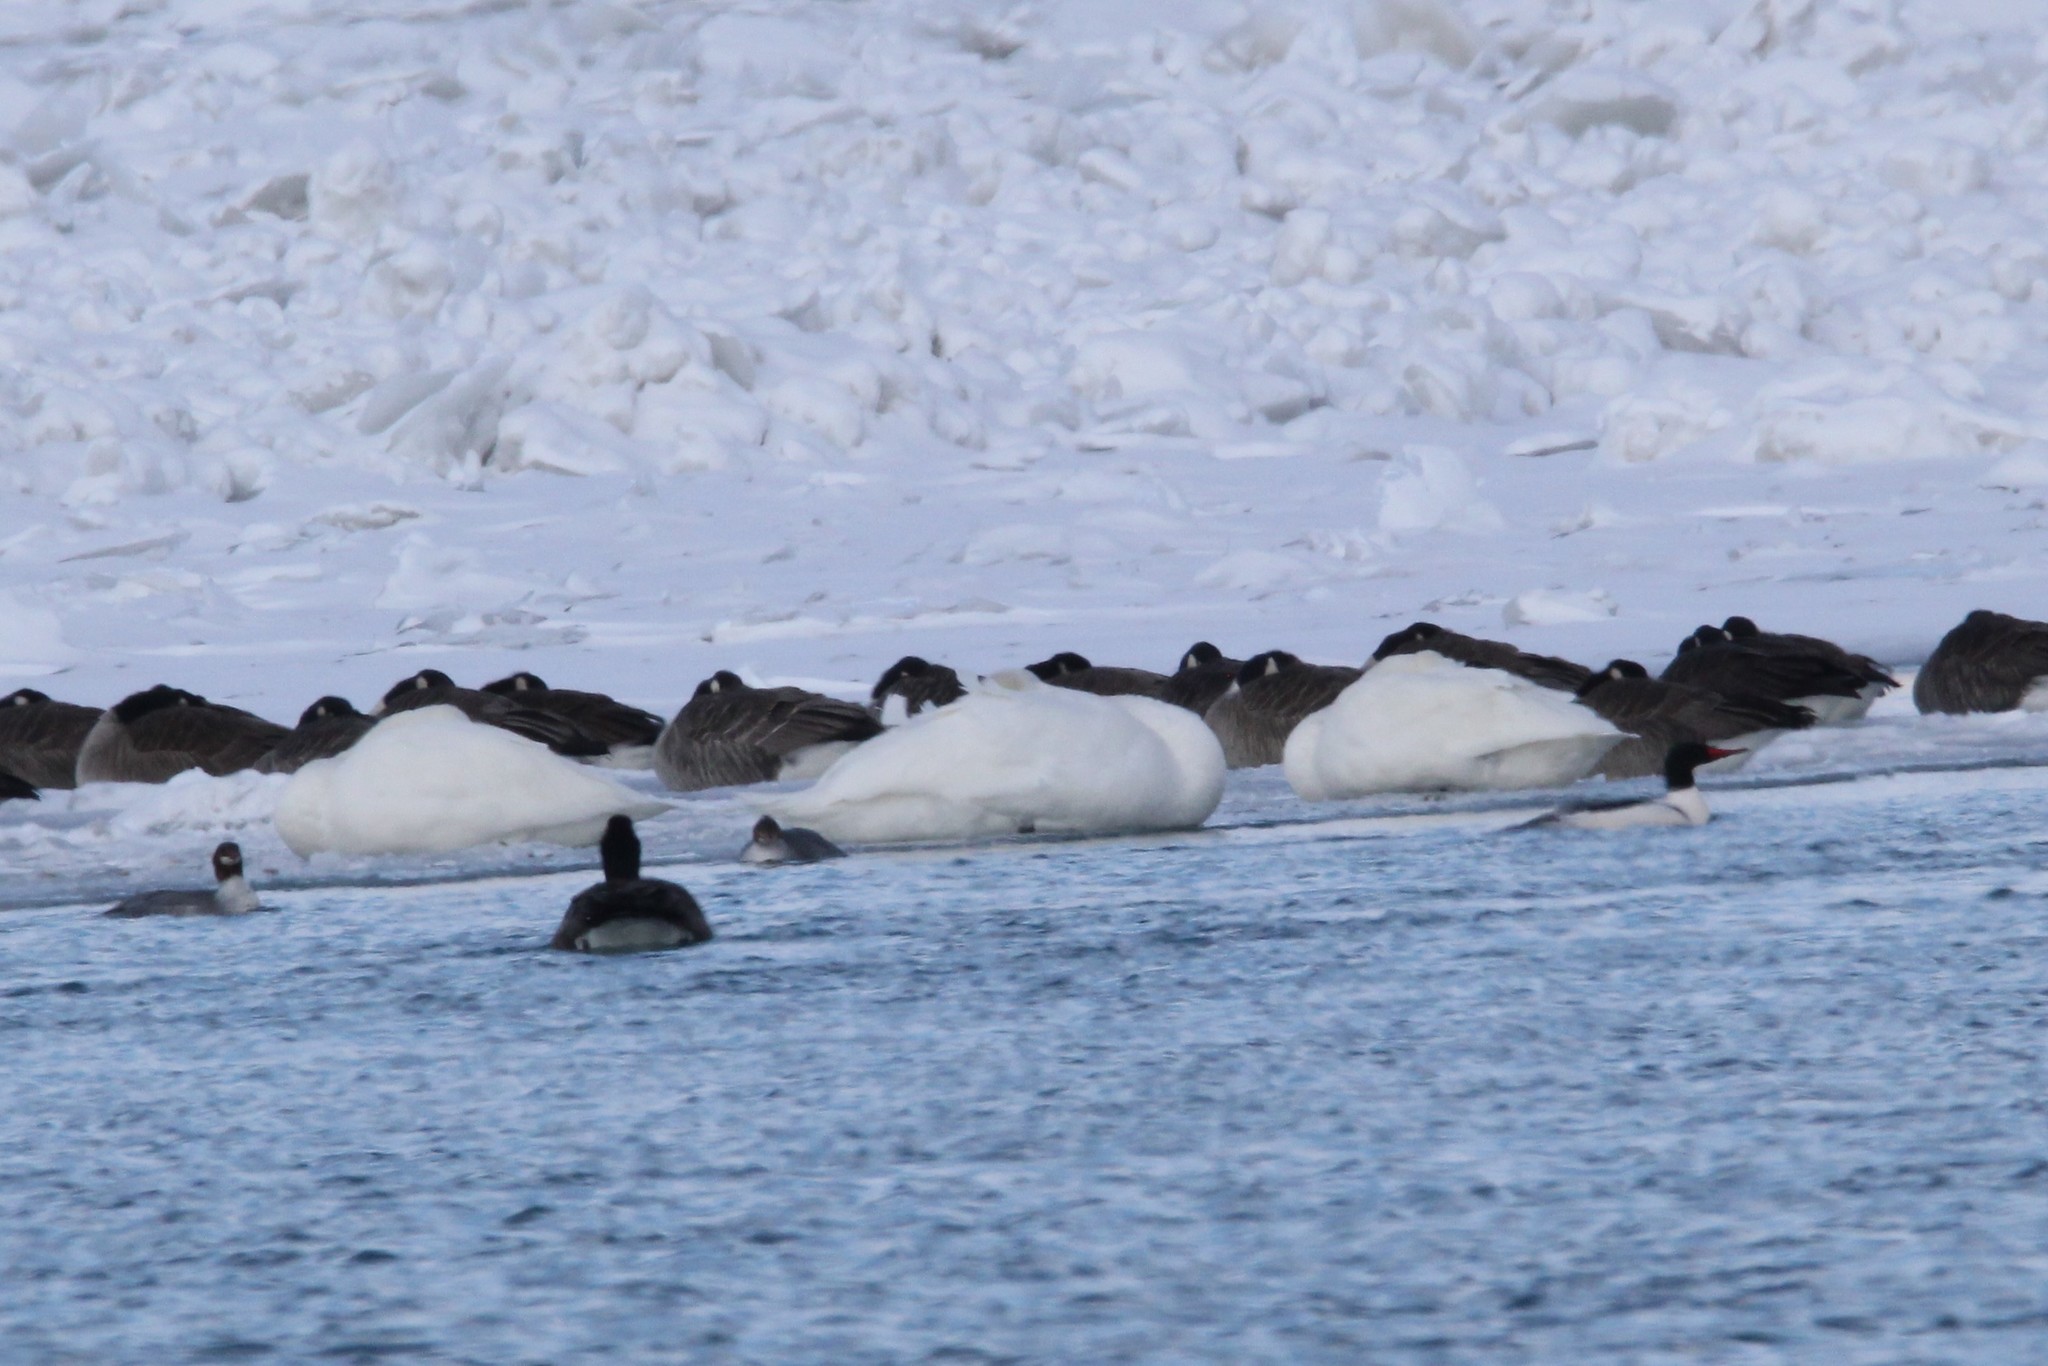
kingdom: Animalia
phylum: Chordata
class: Aves
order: Anseriformes
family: Anatidae
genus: Cygnus
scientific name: Cygnus columbianus
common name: Tundra swan
